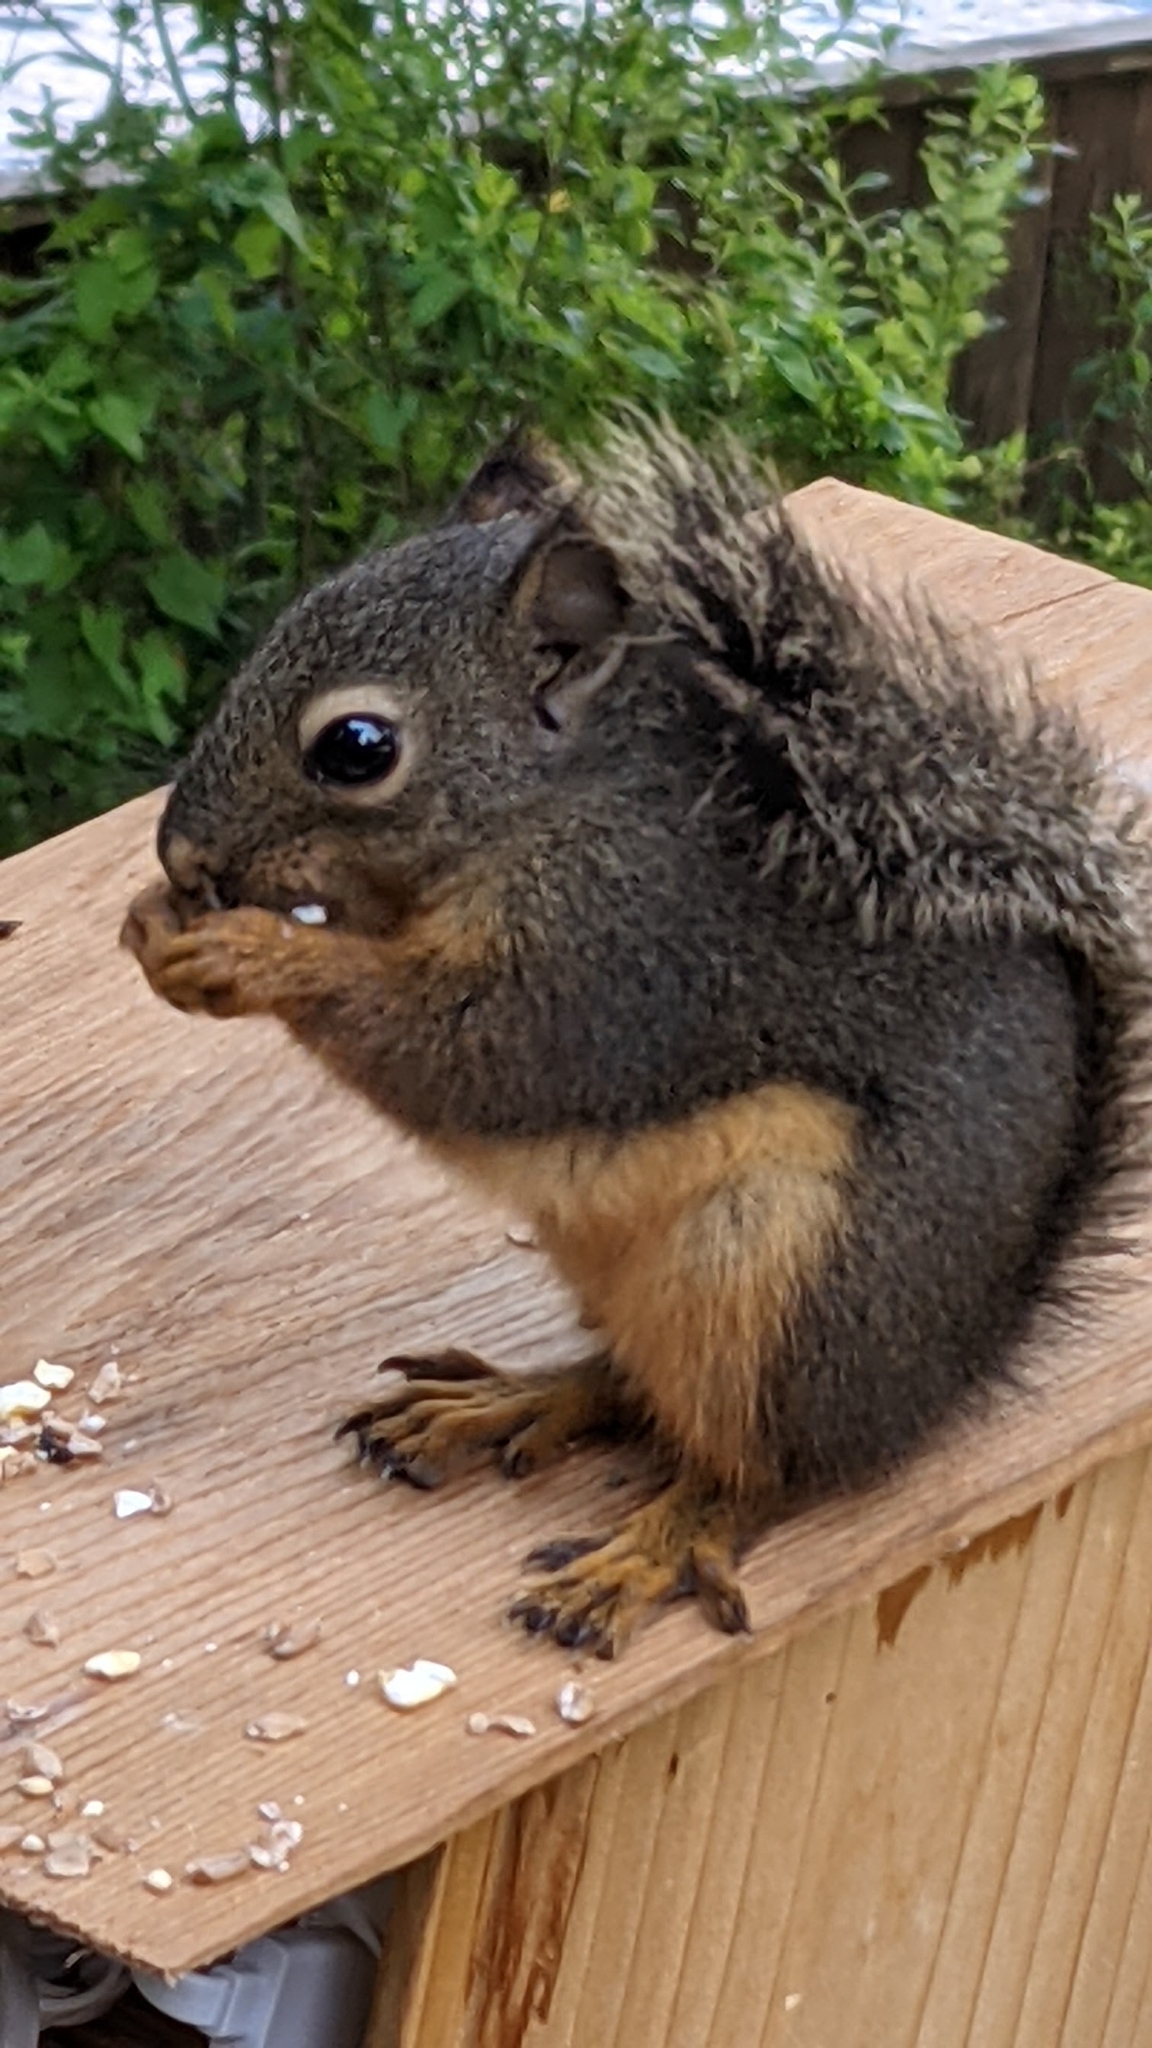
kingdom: Animalia
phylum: Chordata
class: Mammalia
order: Rodentia
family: Sciuridae
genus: Tamiasciurus
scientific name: Tamiasciurus douglasii
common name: Douglas's squirrel
